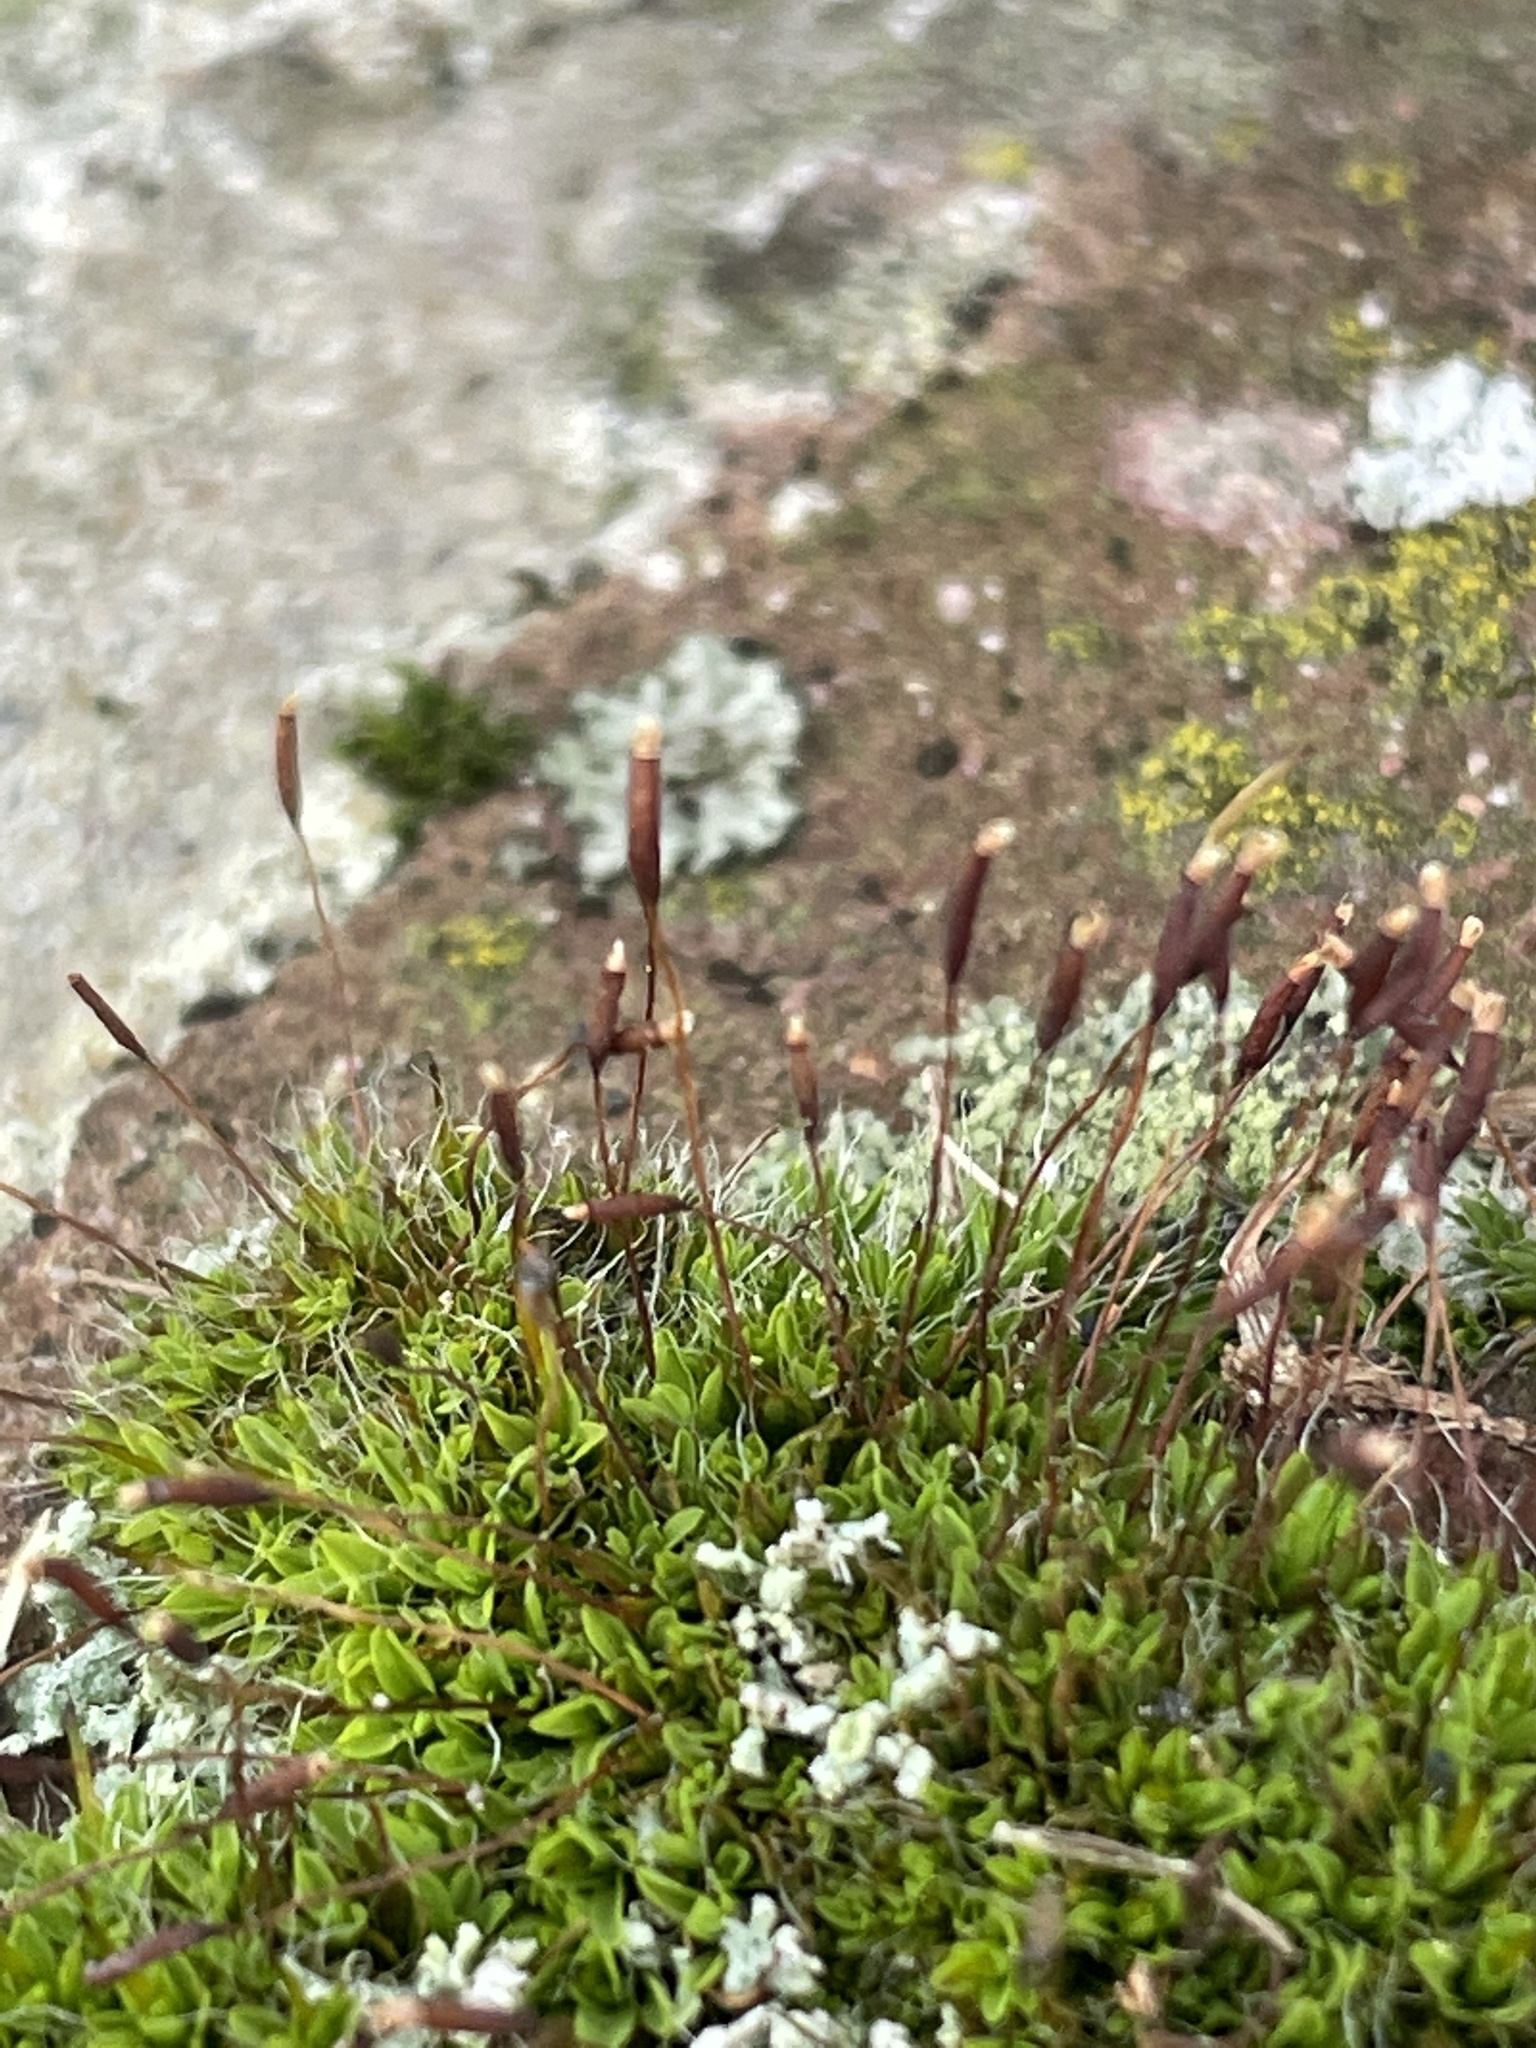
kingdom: Plantae
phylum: Bryophyta
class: Bryopsida
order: Pottiales
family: Pottiaceae
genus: Tortula
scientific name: Tortula muralis
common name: Wall screw-moss
